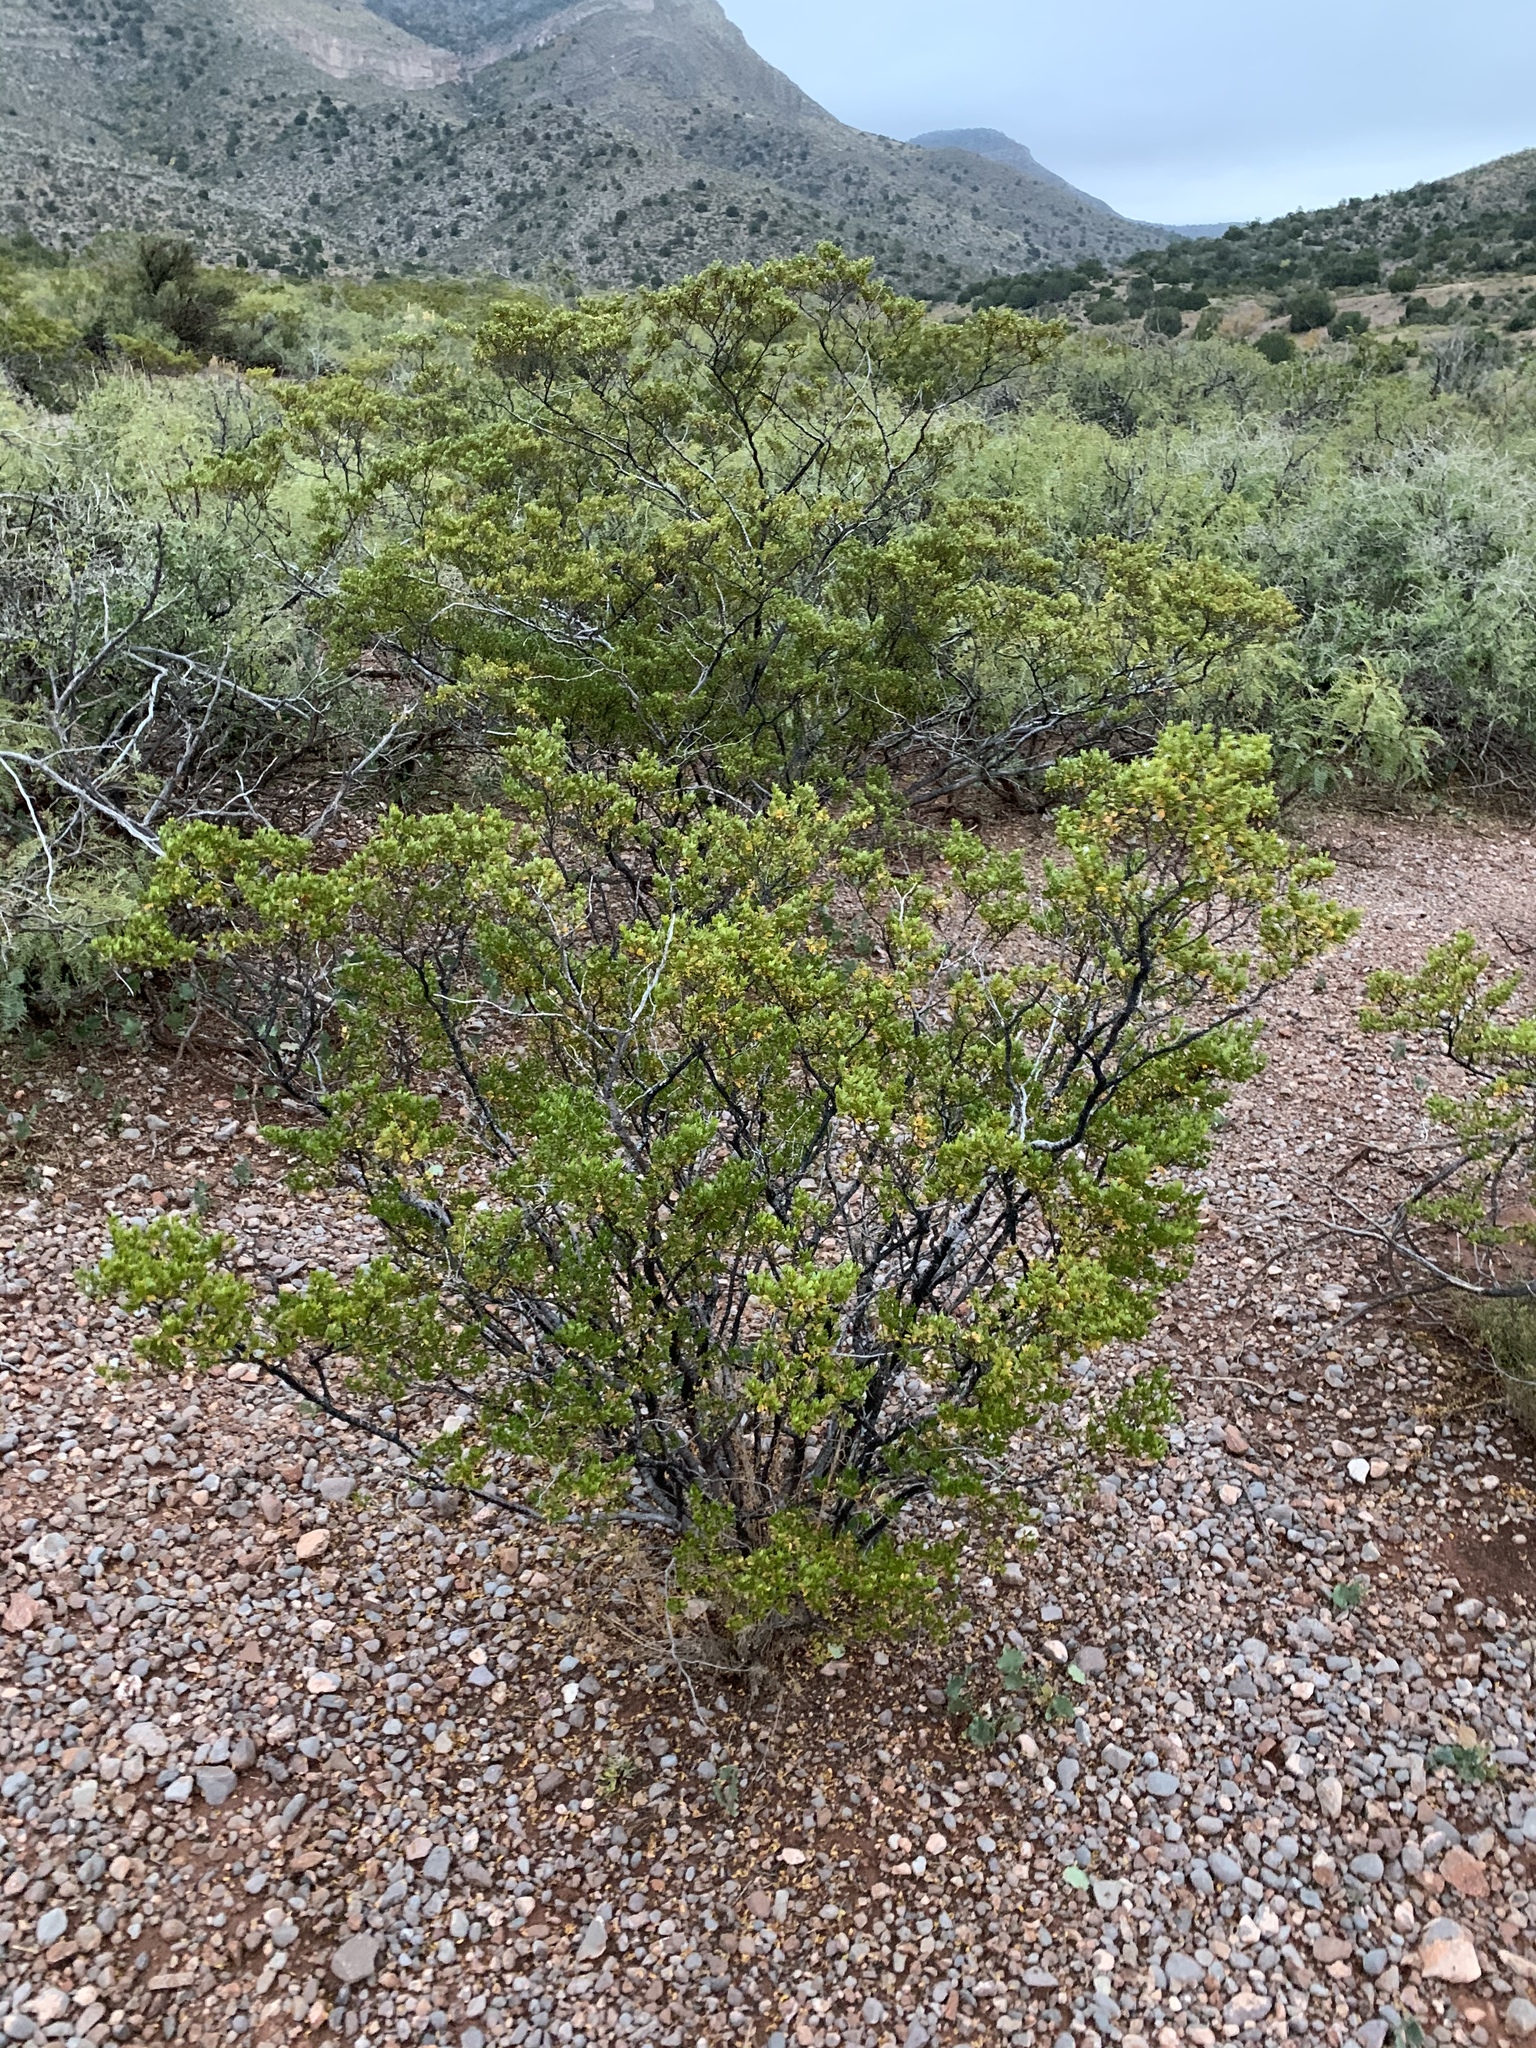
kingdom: Plantae
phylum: Tracheophyta
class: Magnoliopsida
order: Zygophyllales
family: Zygophyllaceae
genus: Larrea
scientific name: Larrea tridentata
